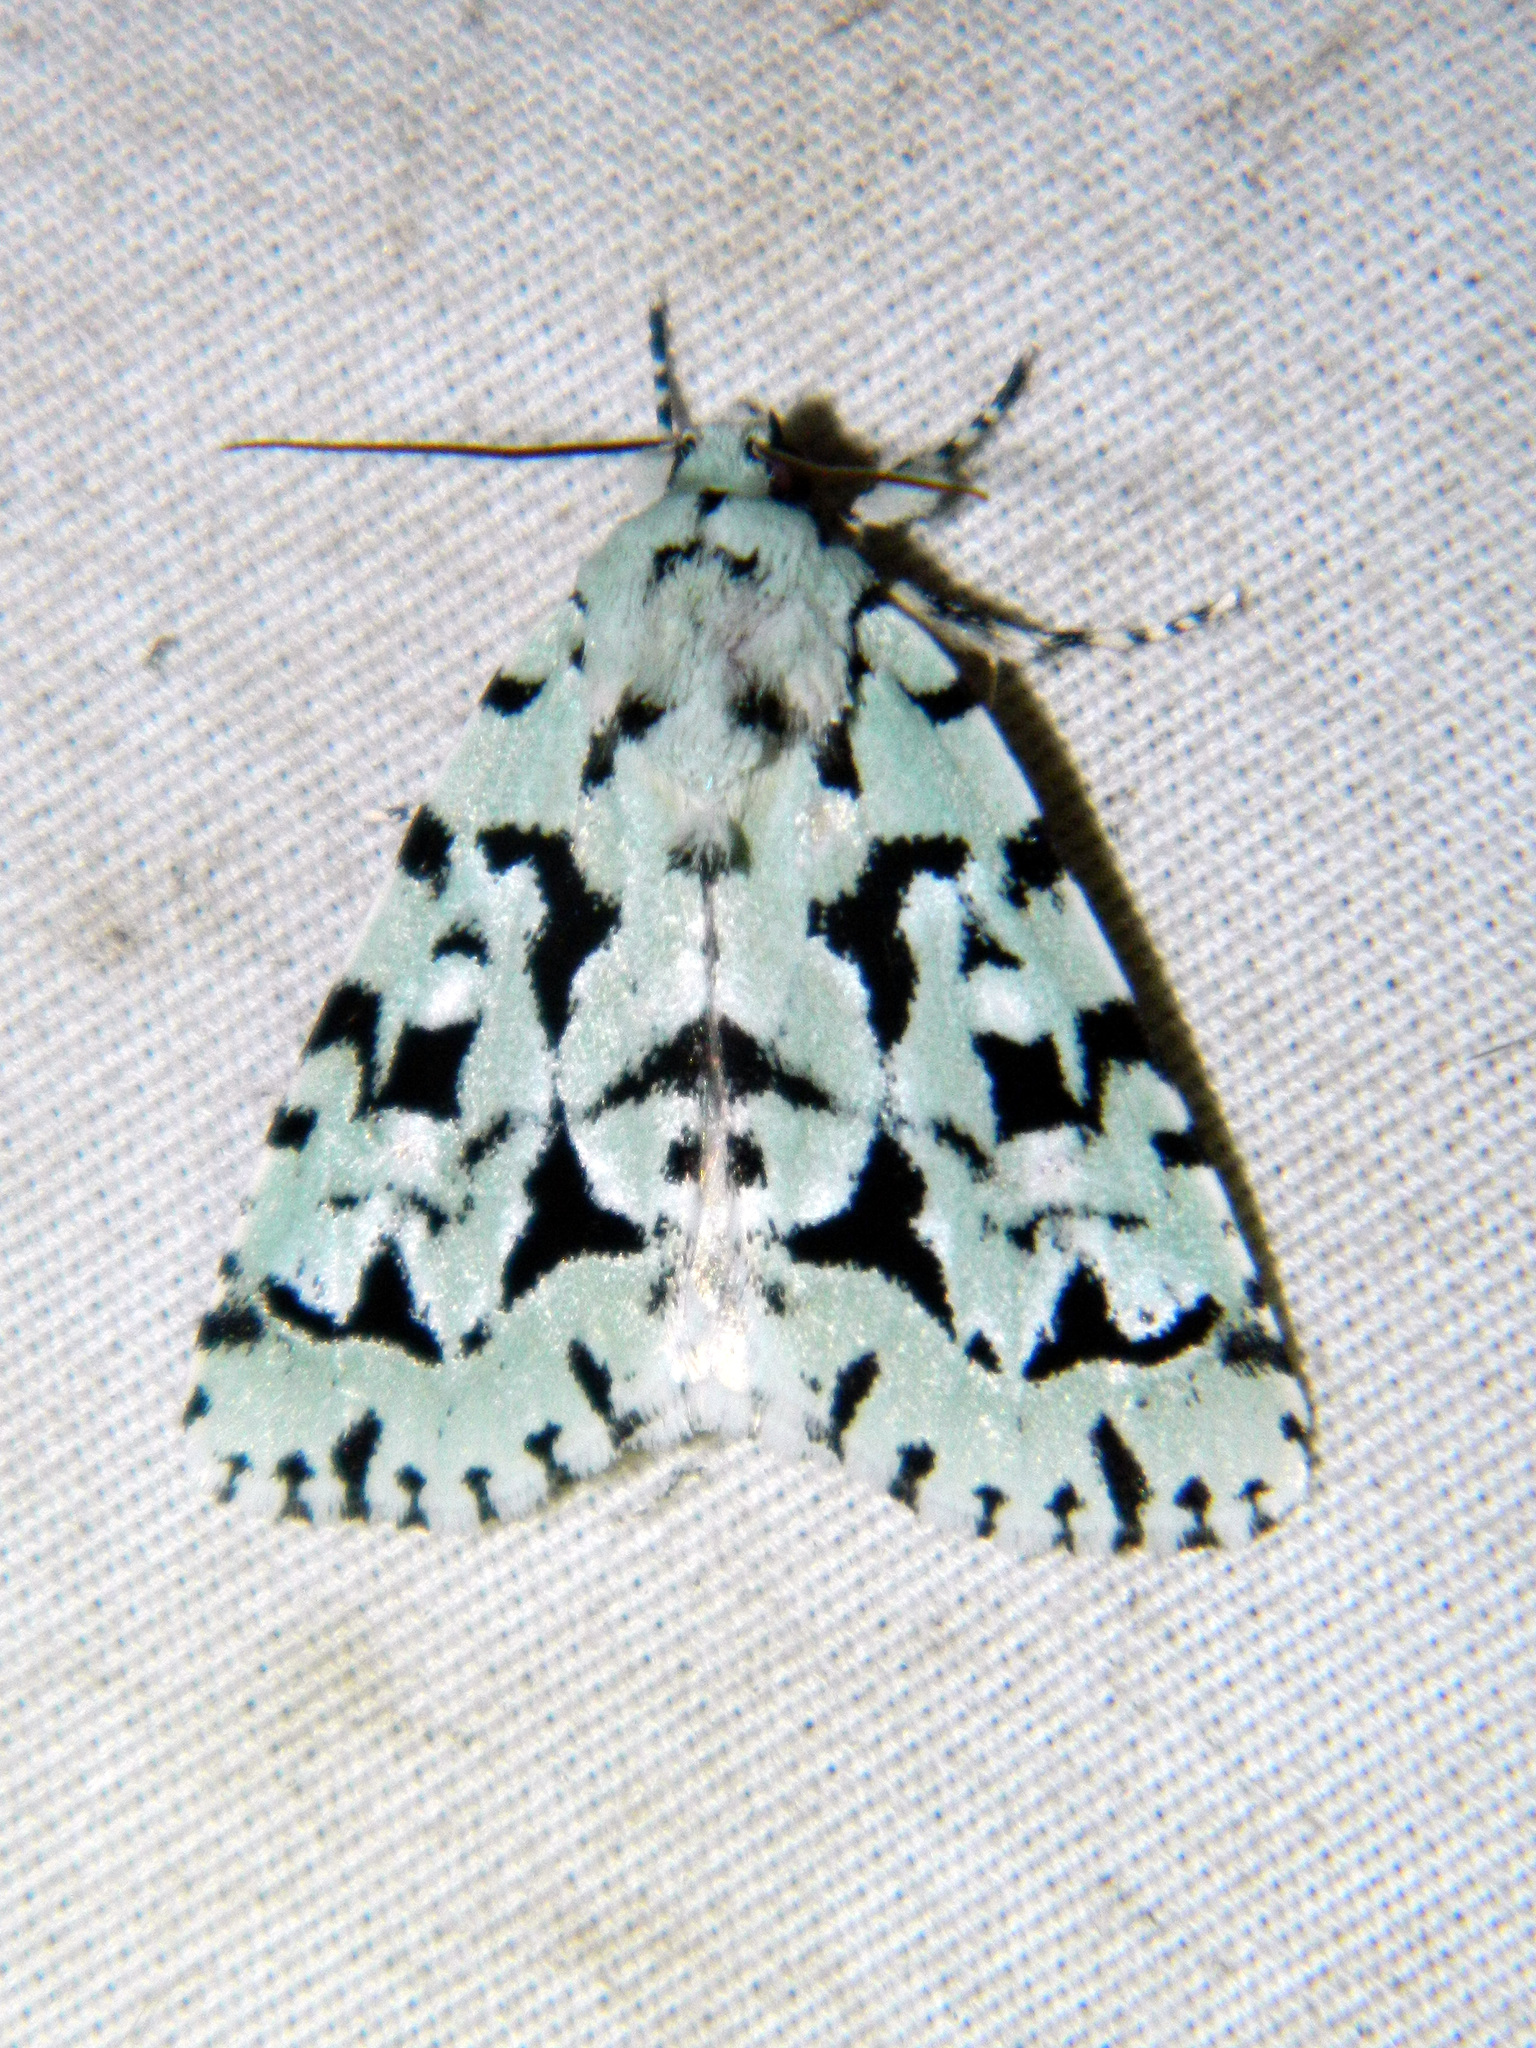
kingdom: Animalia
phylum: Arthropoda
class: Insecta
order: Lepidoptera
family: Noctuidae
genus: Acronicta
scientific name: Acronicta fallax
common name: Green marvel
